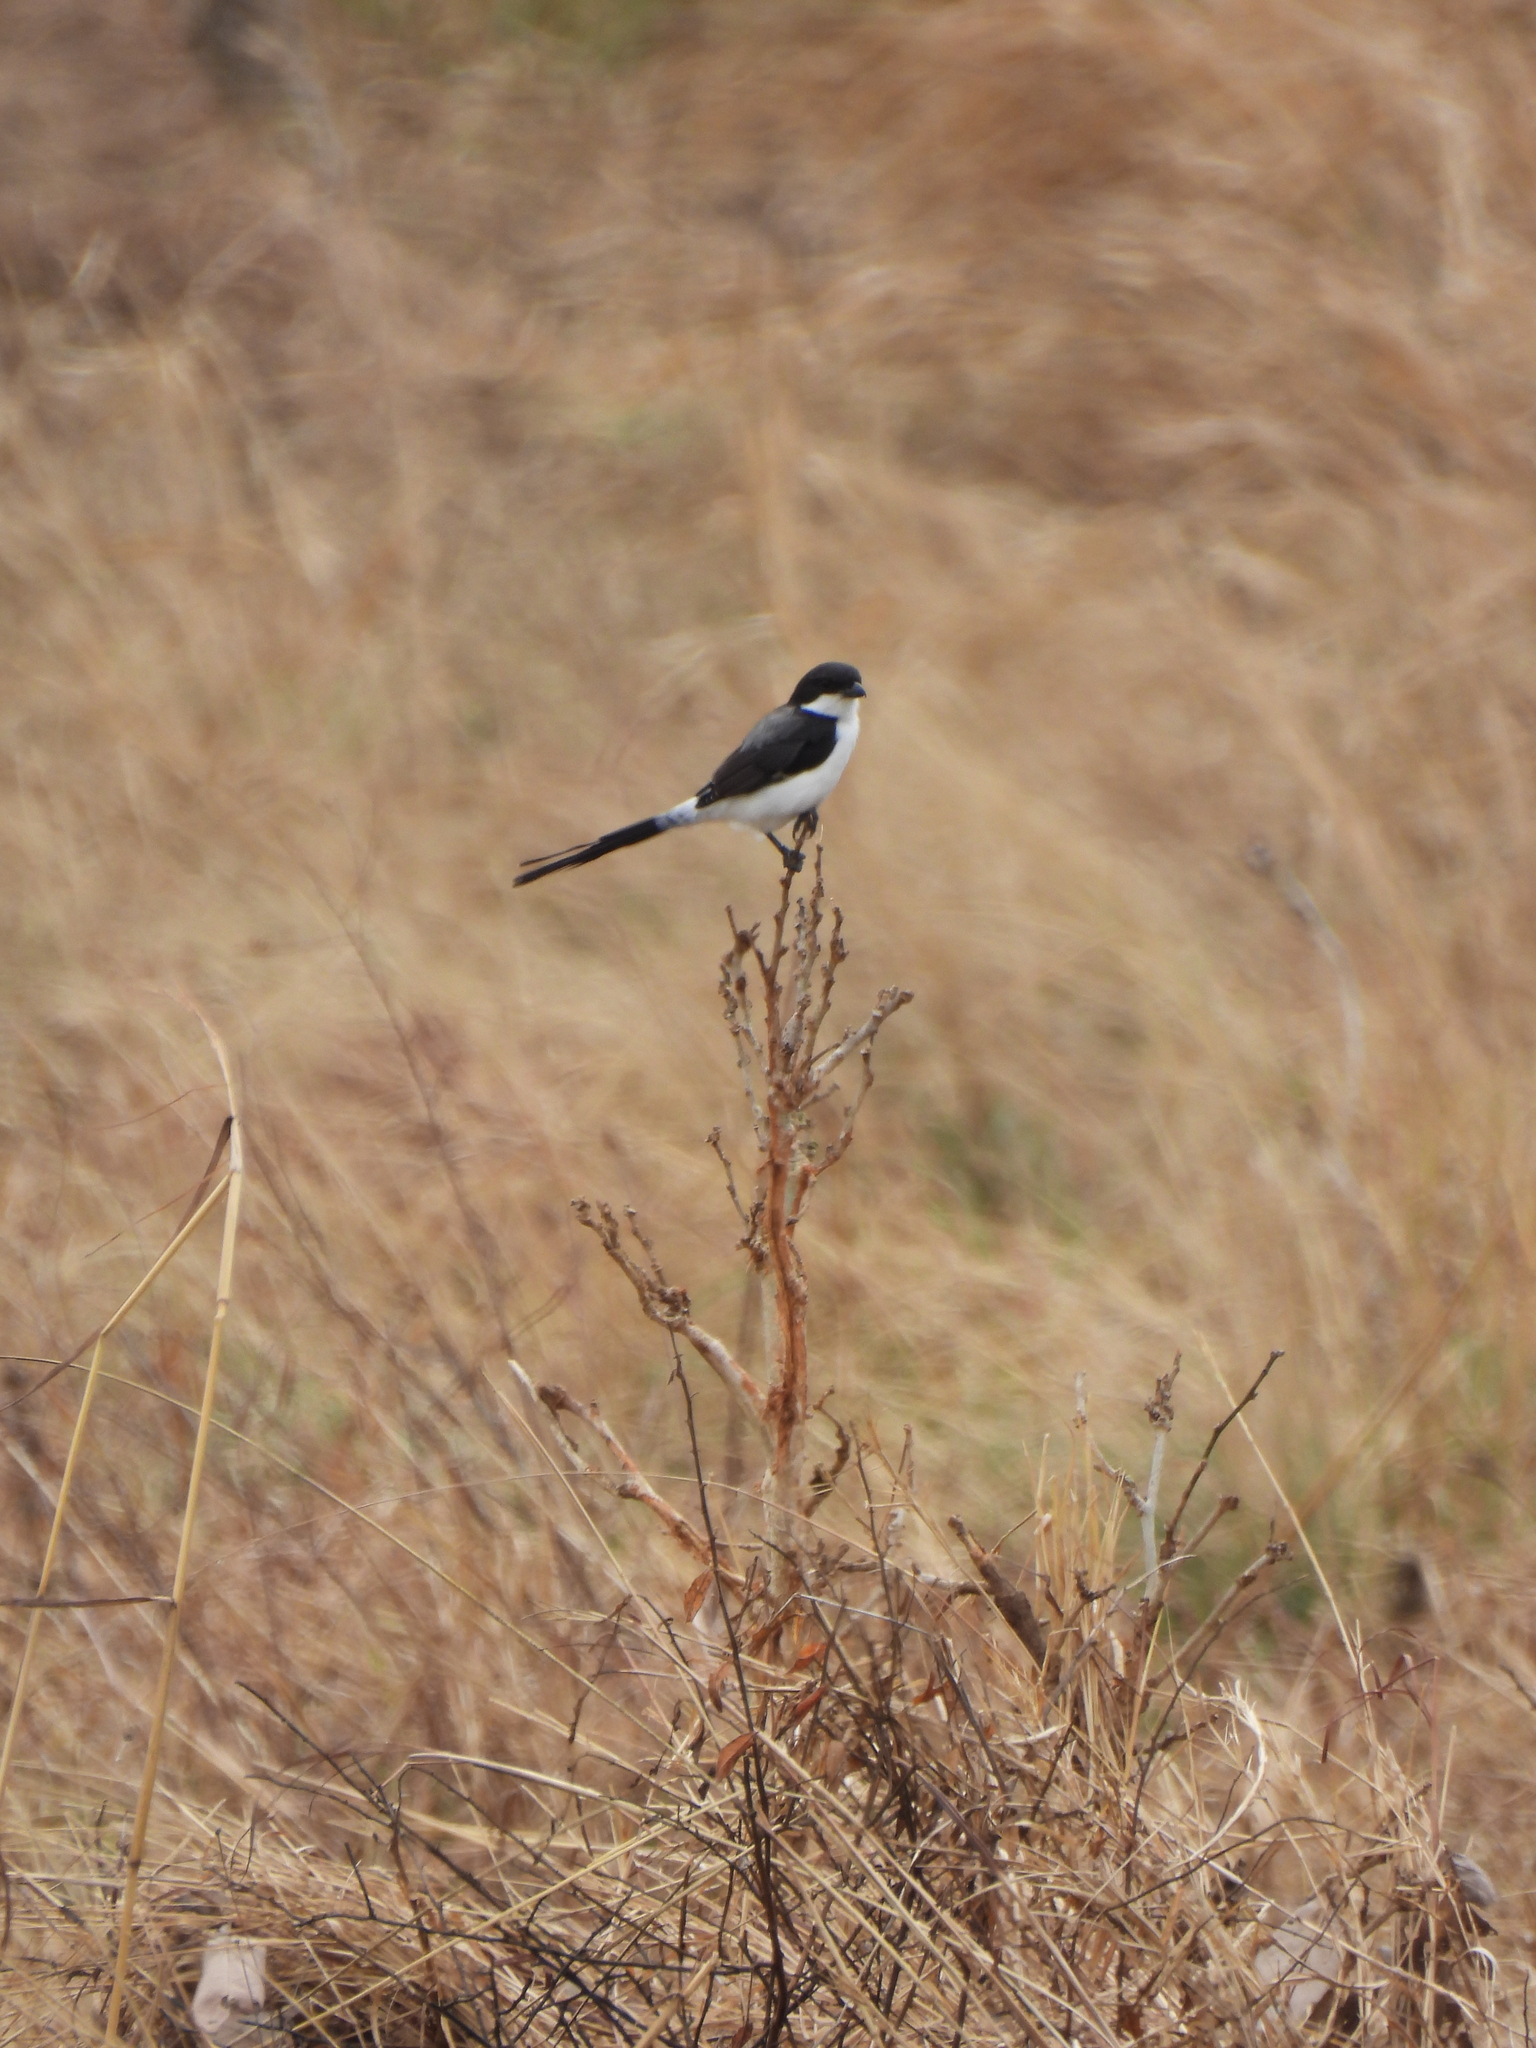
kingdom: Animalia
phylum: Chordata
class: Aves
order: Passeriformes
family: Laniidae
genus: Lanius
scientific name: Lanius cabanisi
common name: Long-tailed fiscal
